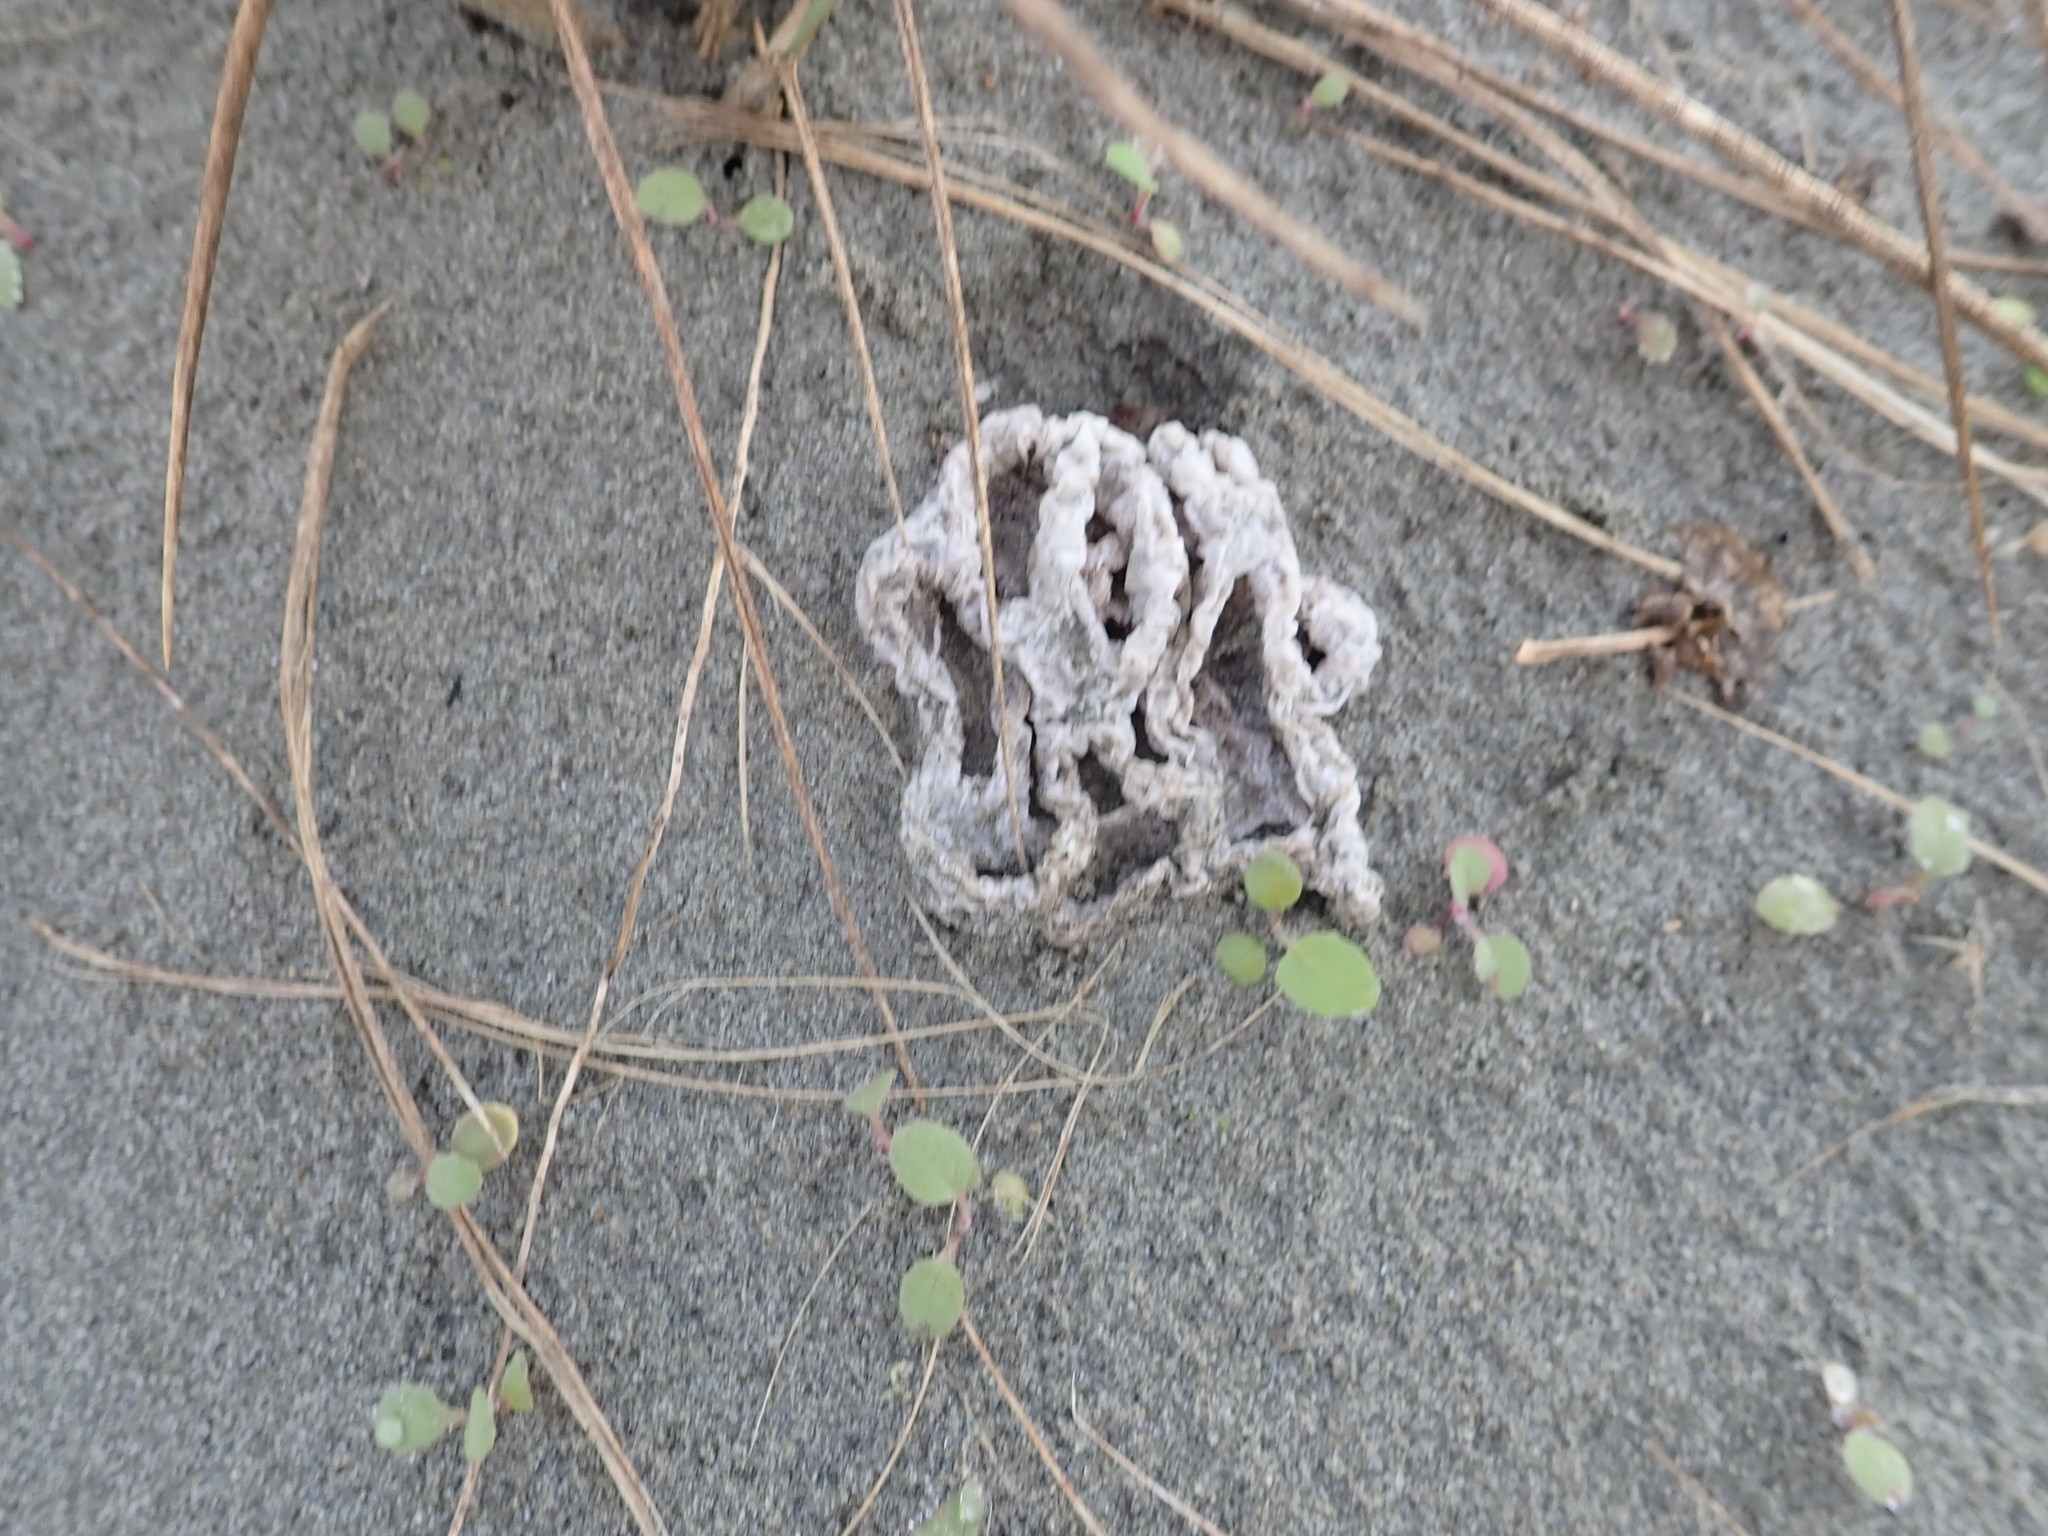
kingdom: Fungi
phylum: Basidiomycota
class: Agaricomycetes
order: Phallales
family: Phallaceae
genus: Ileodictyon
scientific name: Ileodictyon cibarium
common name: Basket fungus
